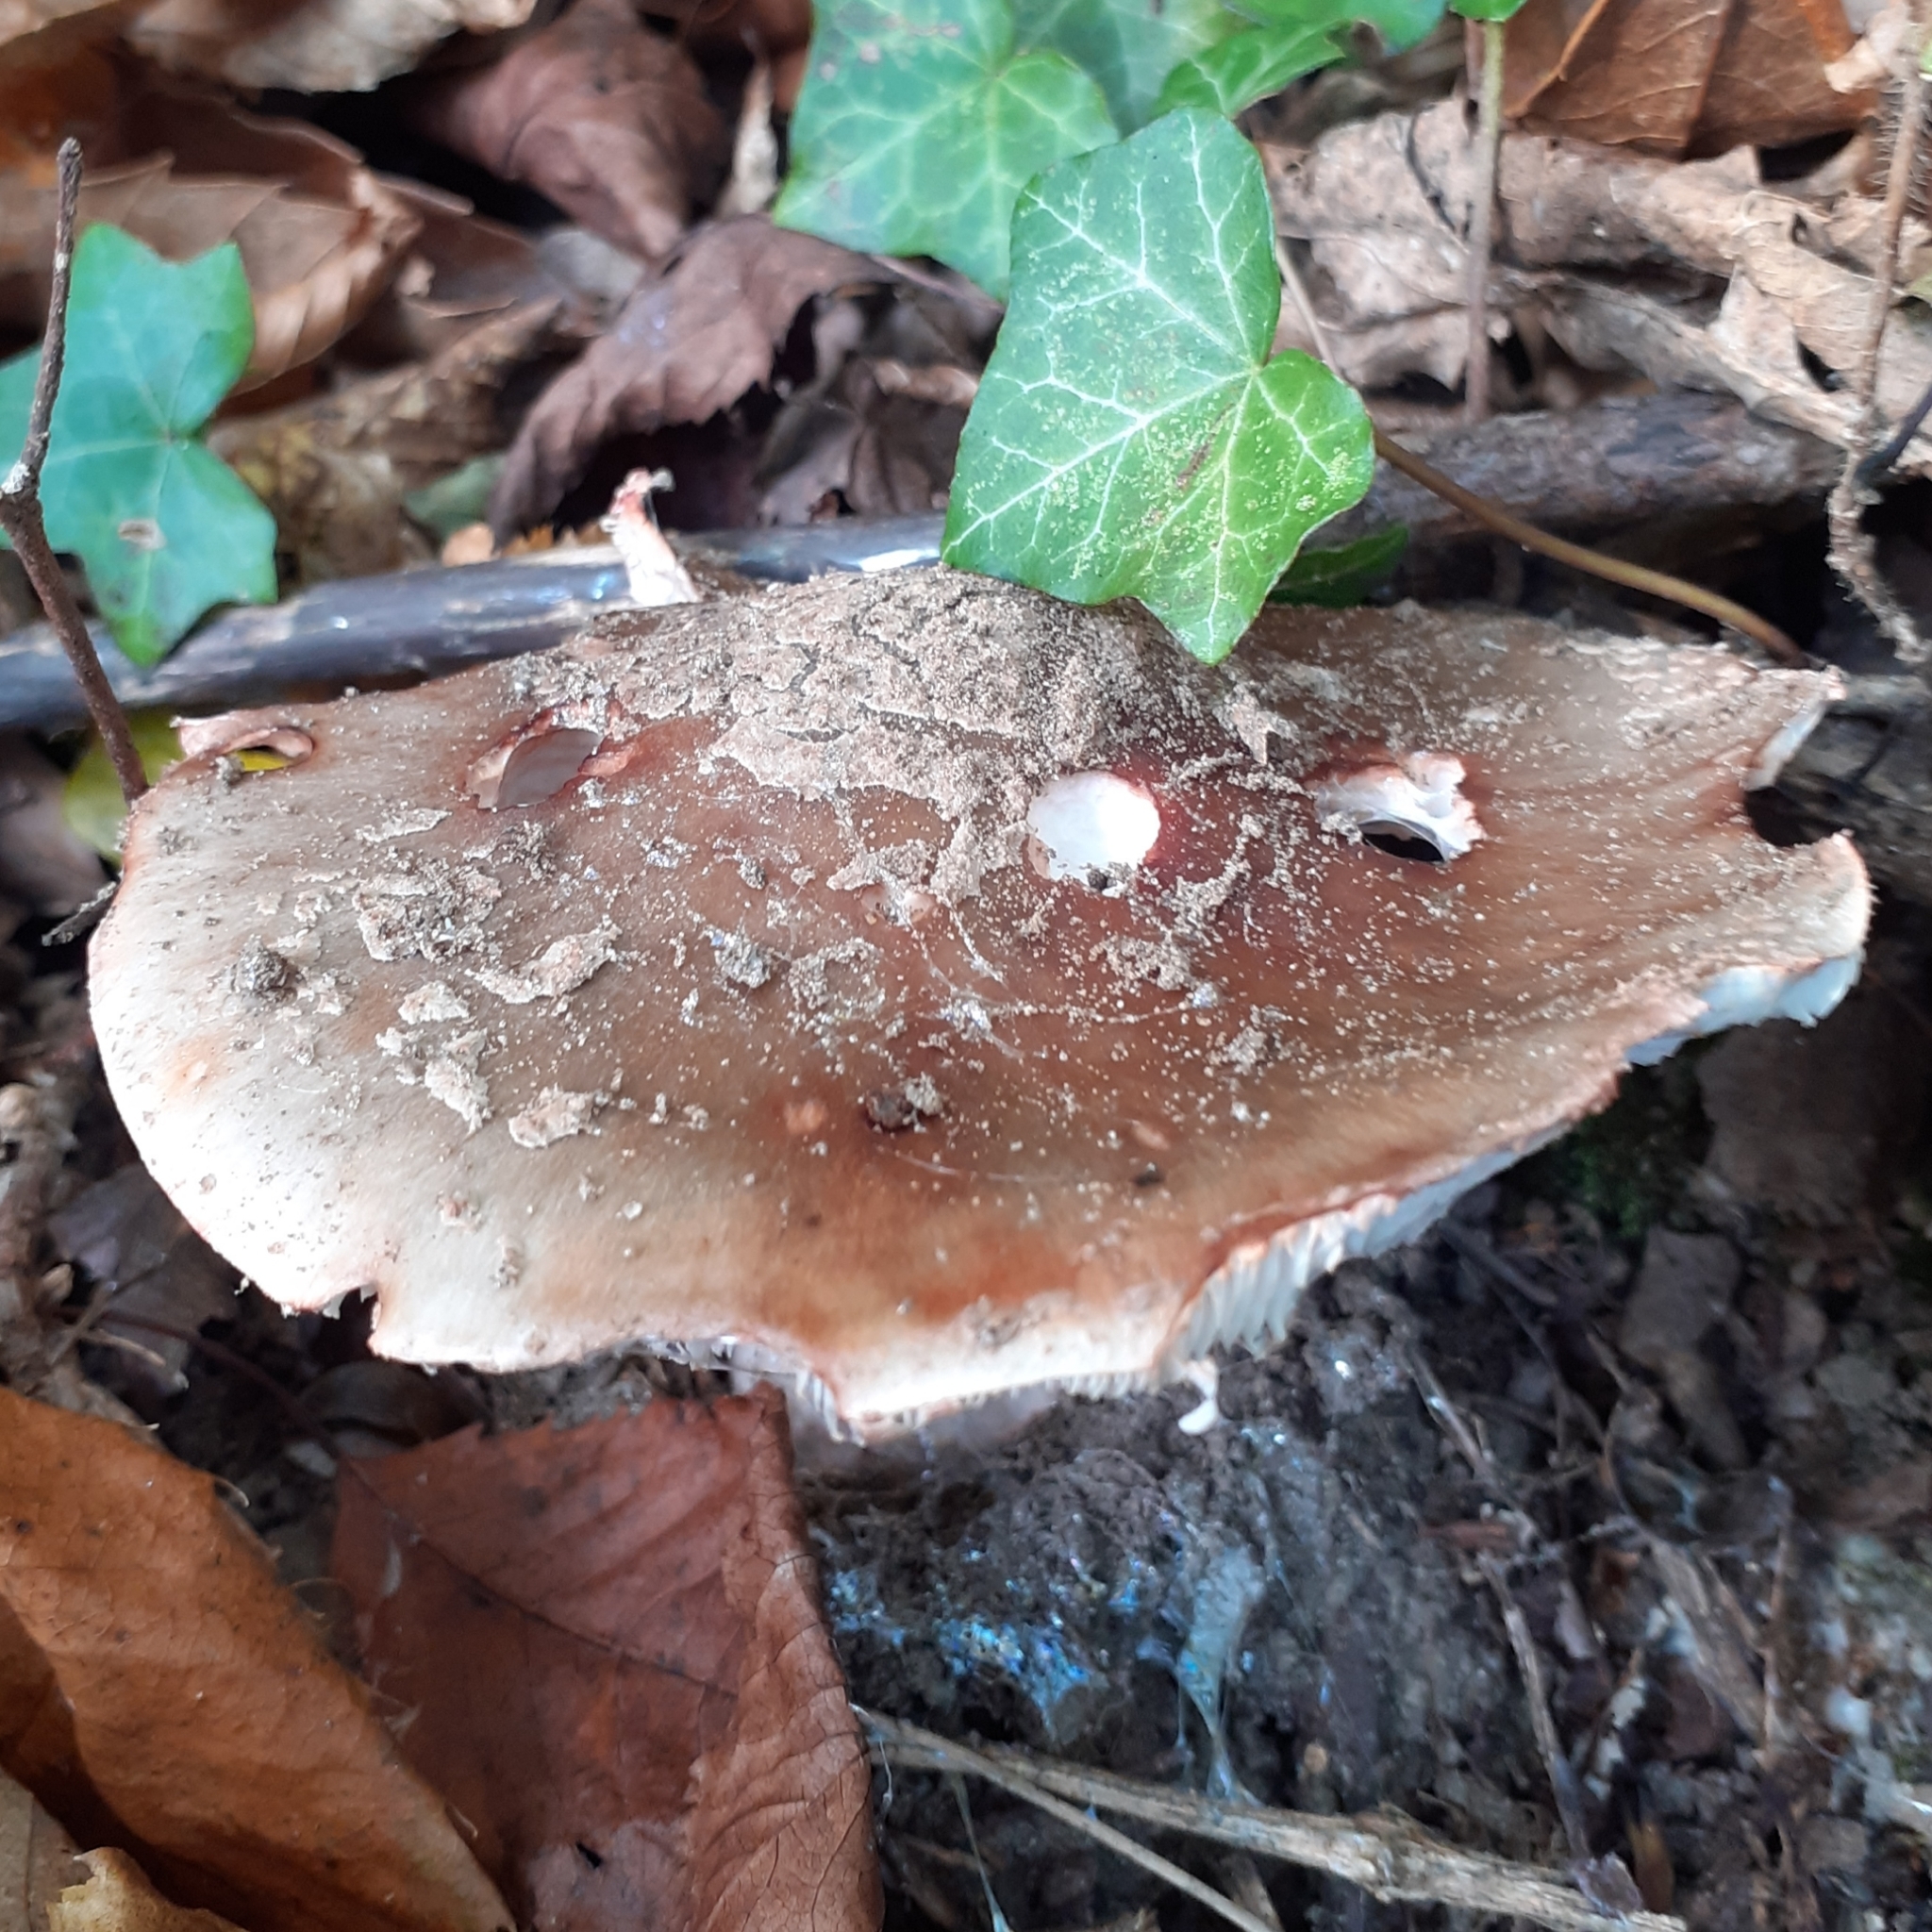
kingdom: Fungi
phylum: Basidiomycota
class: Agaricomycetes
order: Agaricales
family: Amanitaceae
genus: Amanita
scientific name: Amanita rubescens
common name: Blusher
